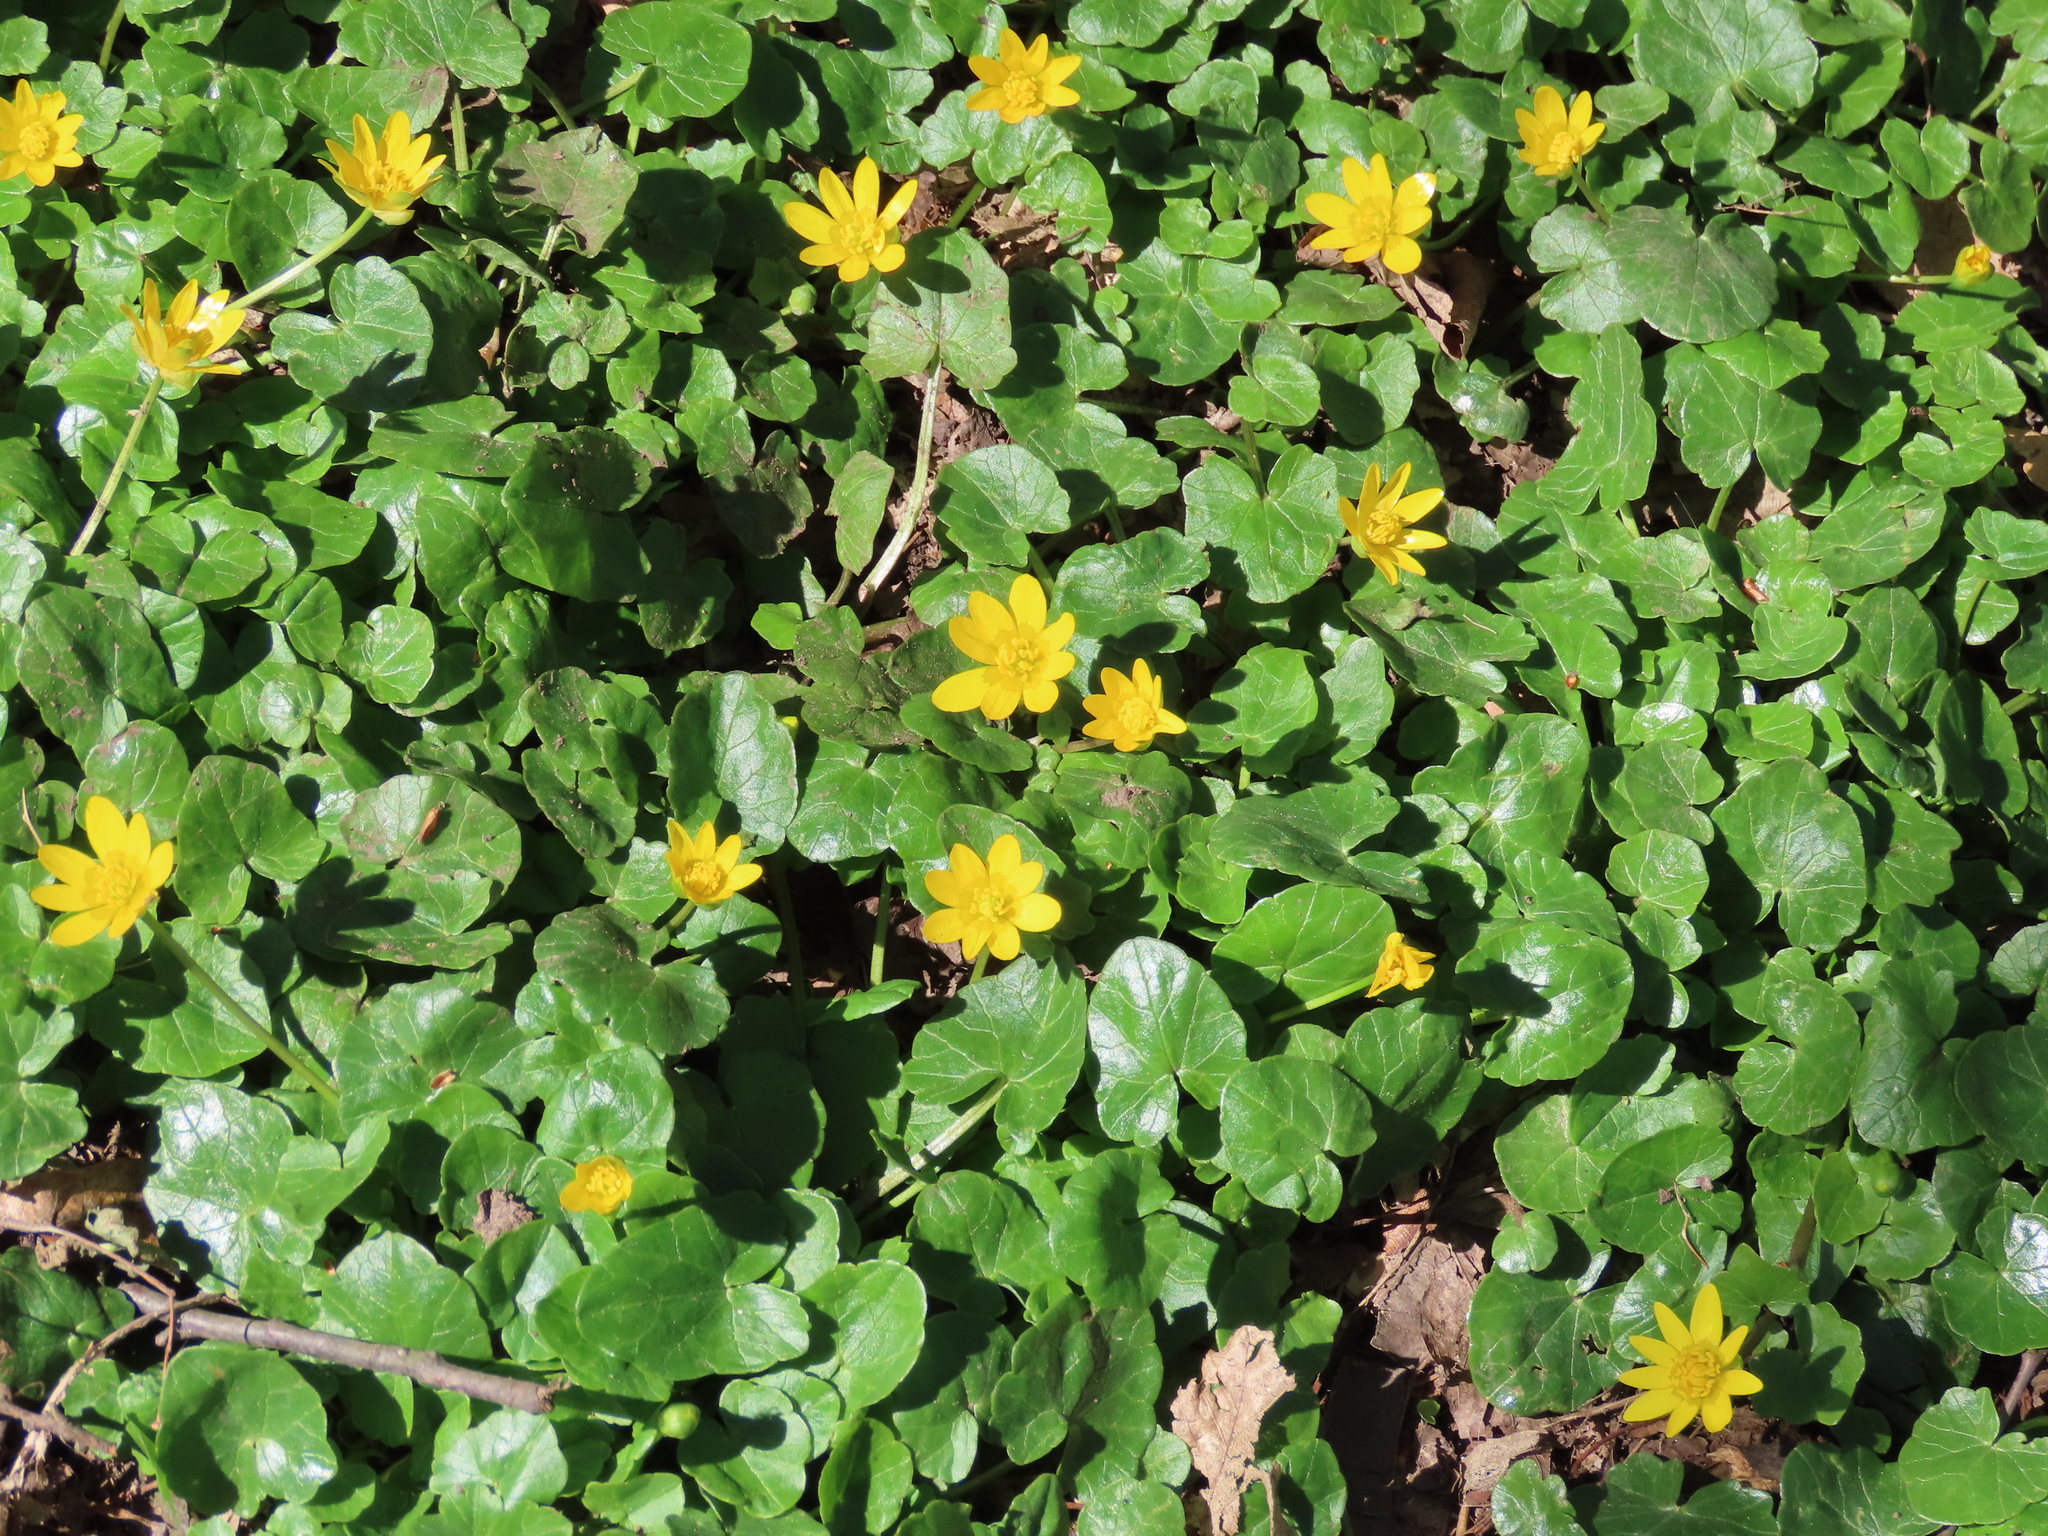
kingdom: Plantae
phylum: Tracheophyta
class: Magnoliopsida
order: Ranunculales
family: Ranunculaceae
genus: Ficaria
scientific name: Ficaria verna
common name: Lesser celandine
